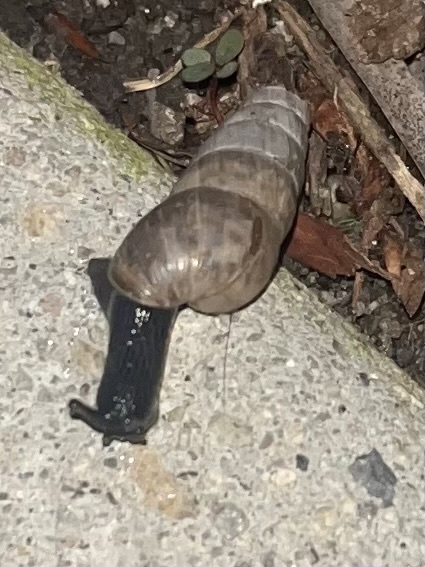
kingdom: Animalia
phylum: Mollusca
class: Gastropoda
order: Stylommatophora
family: Achatinidae
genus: Rumina
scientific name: Rumina decollata
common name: Decollate snail
